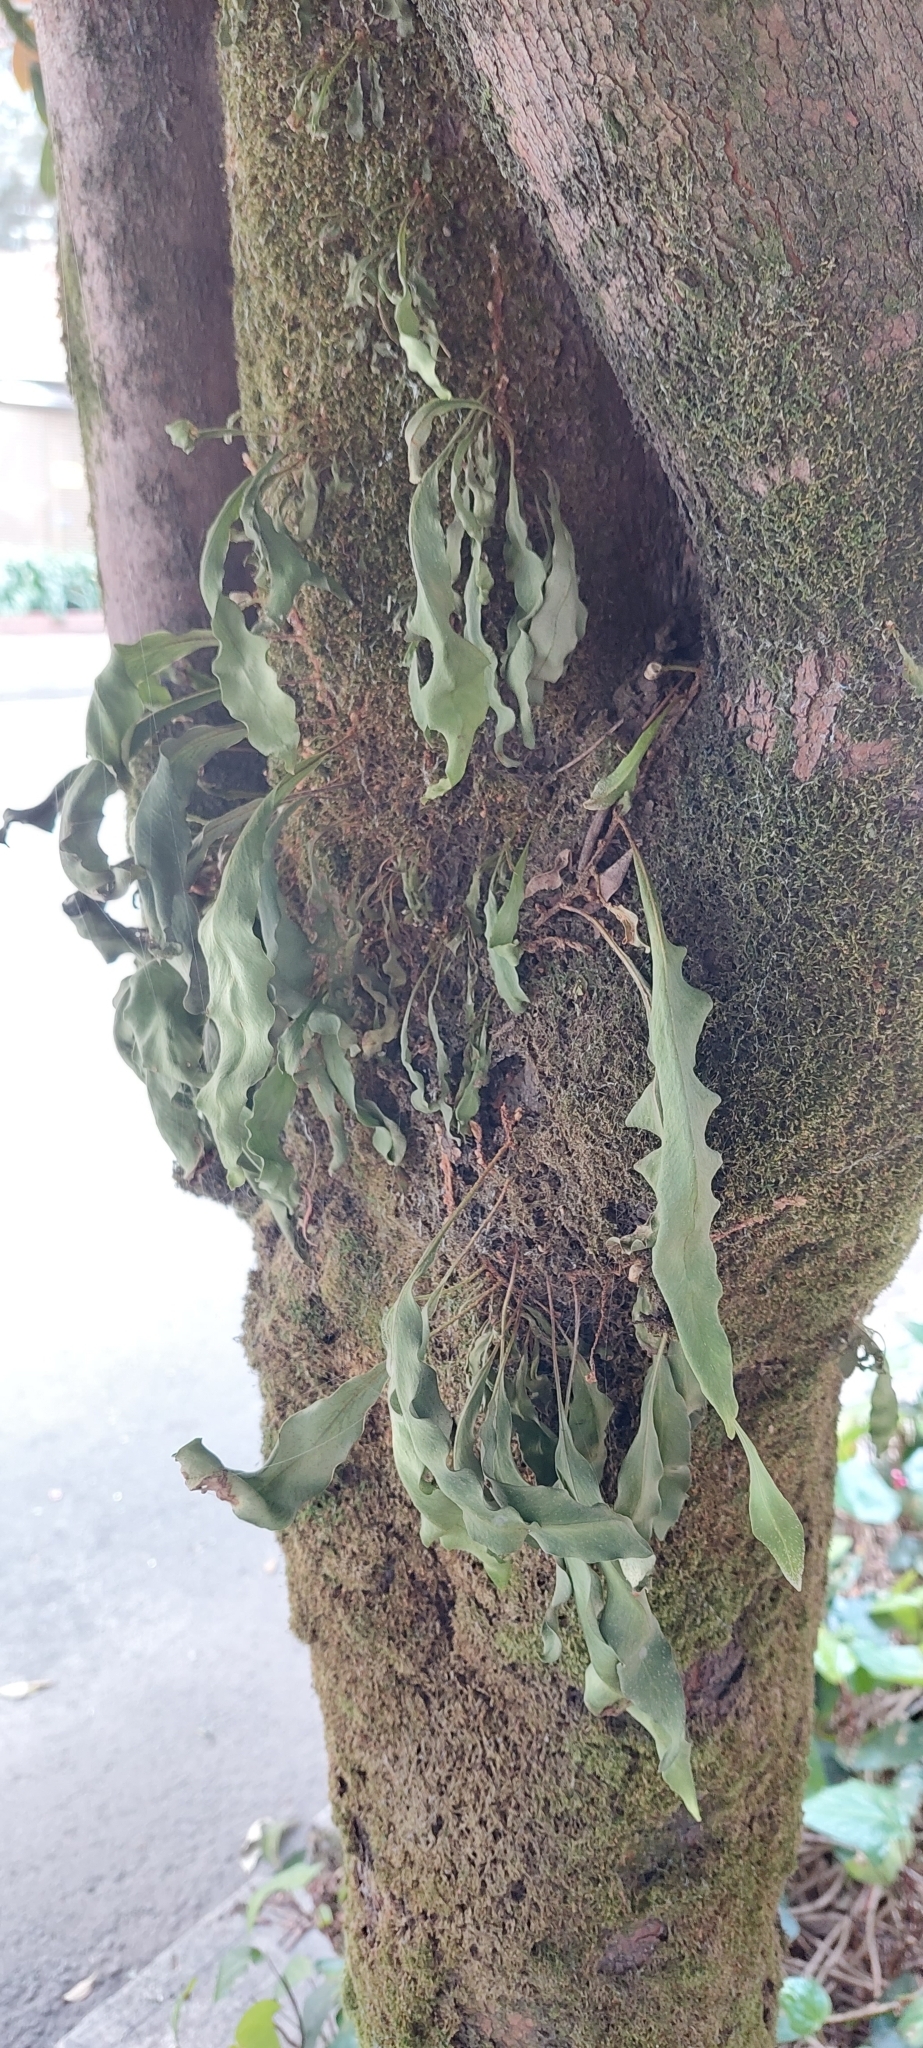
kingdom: Plantae
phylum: Tracheophyta
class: Polypodiopsida
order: Polypodiales
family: Polypodiaceae
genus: Pleopeltis
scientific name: Pleopeltis macrocarpa
